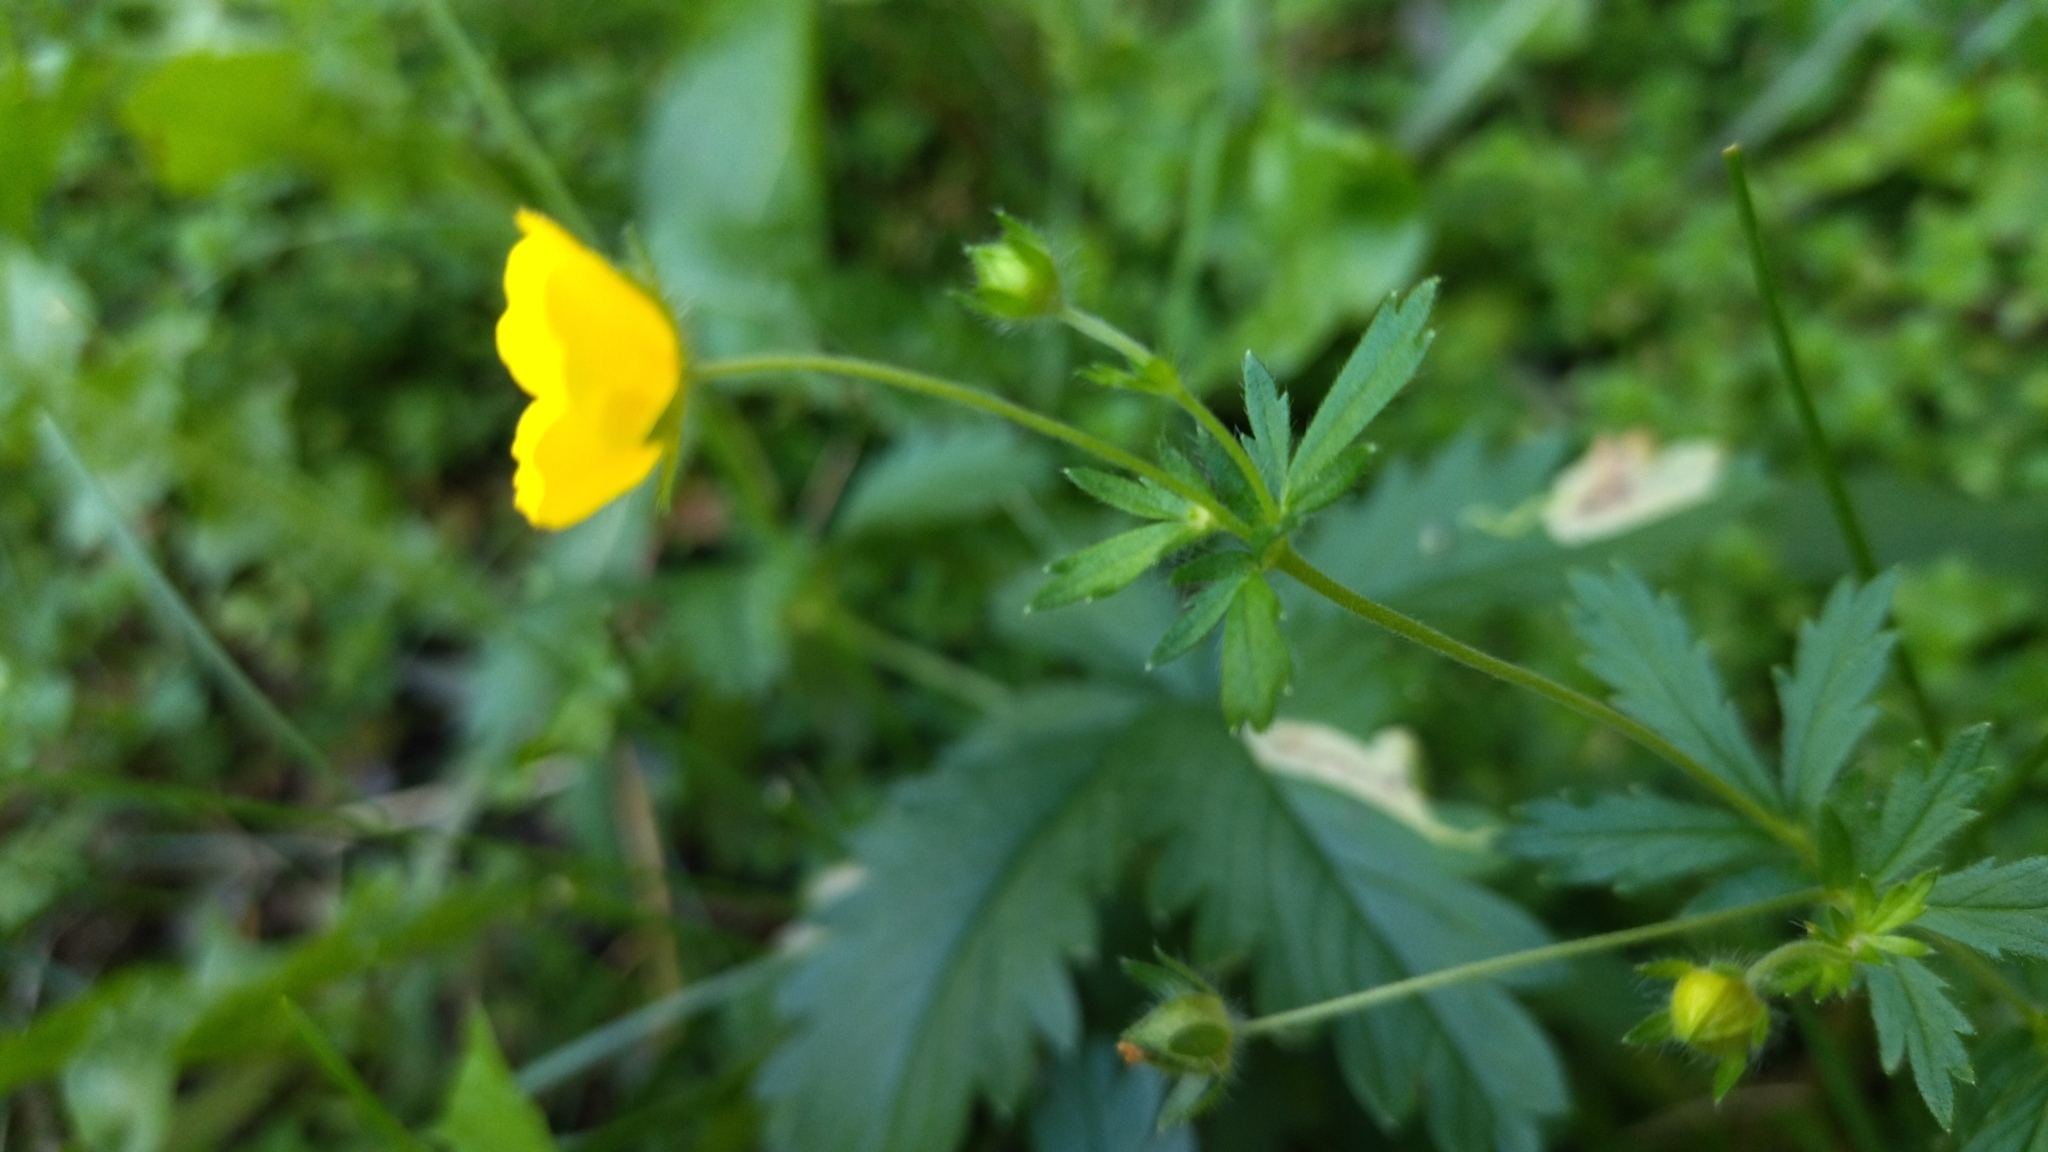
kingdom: Plantae
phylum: Tracheophyta
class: Magnoliopsida
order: Rosales
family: Rosaceae
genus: Potentilla
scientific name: Potentilla thuringiaca
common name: European cinquefoil
